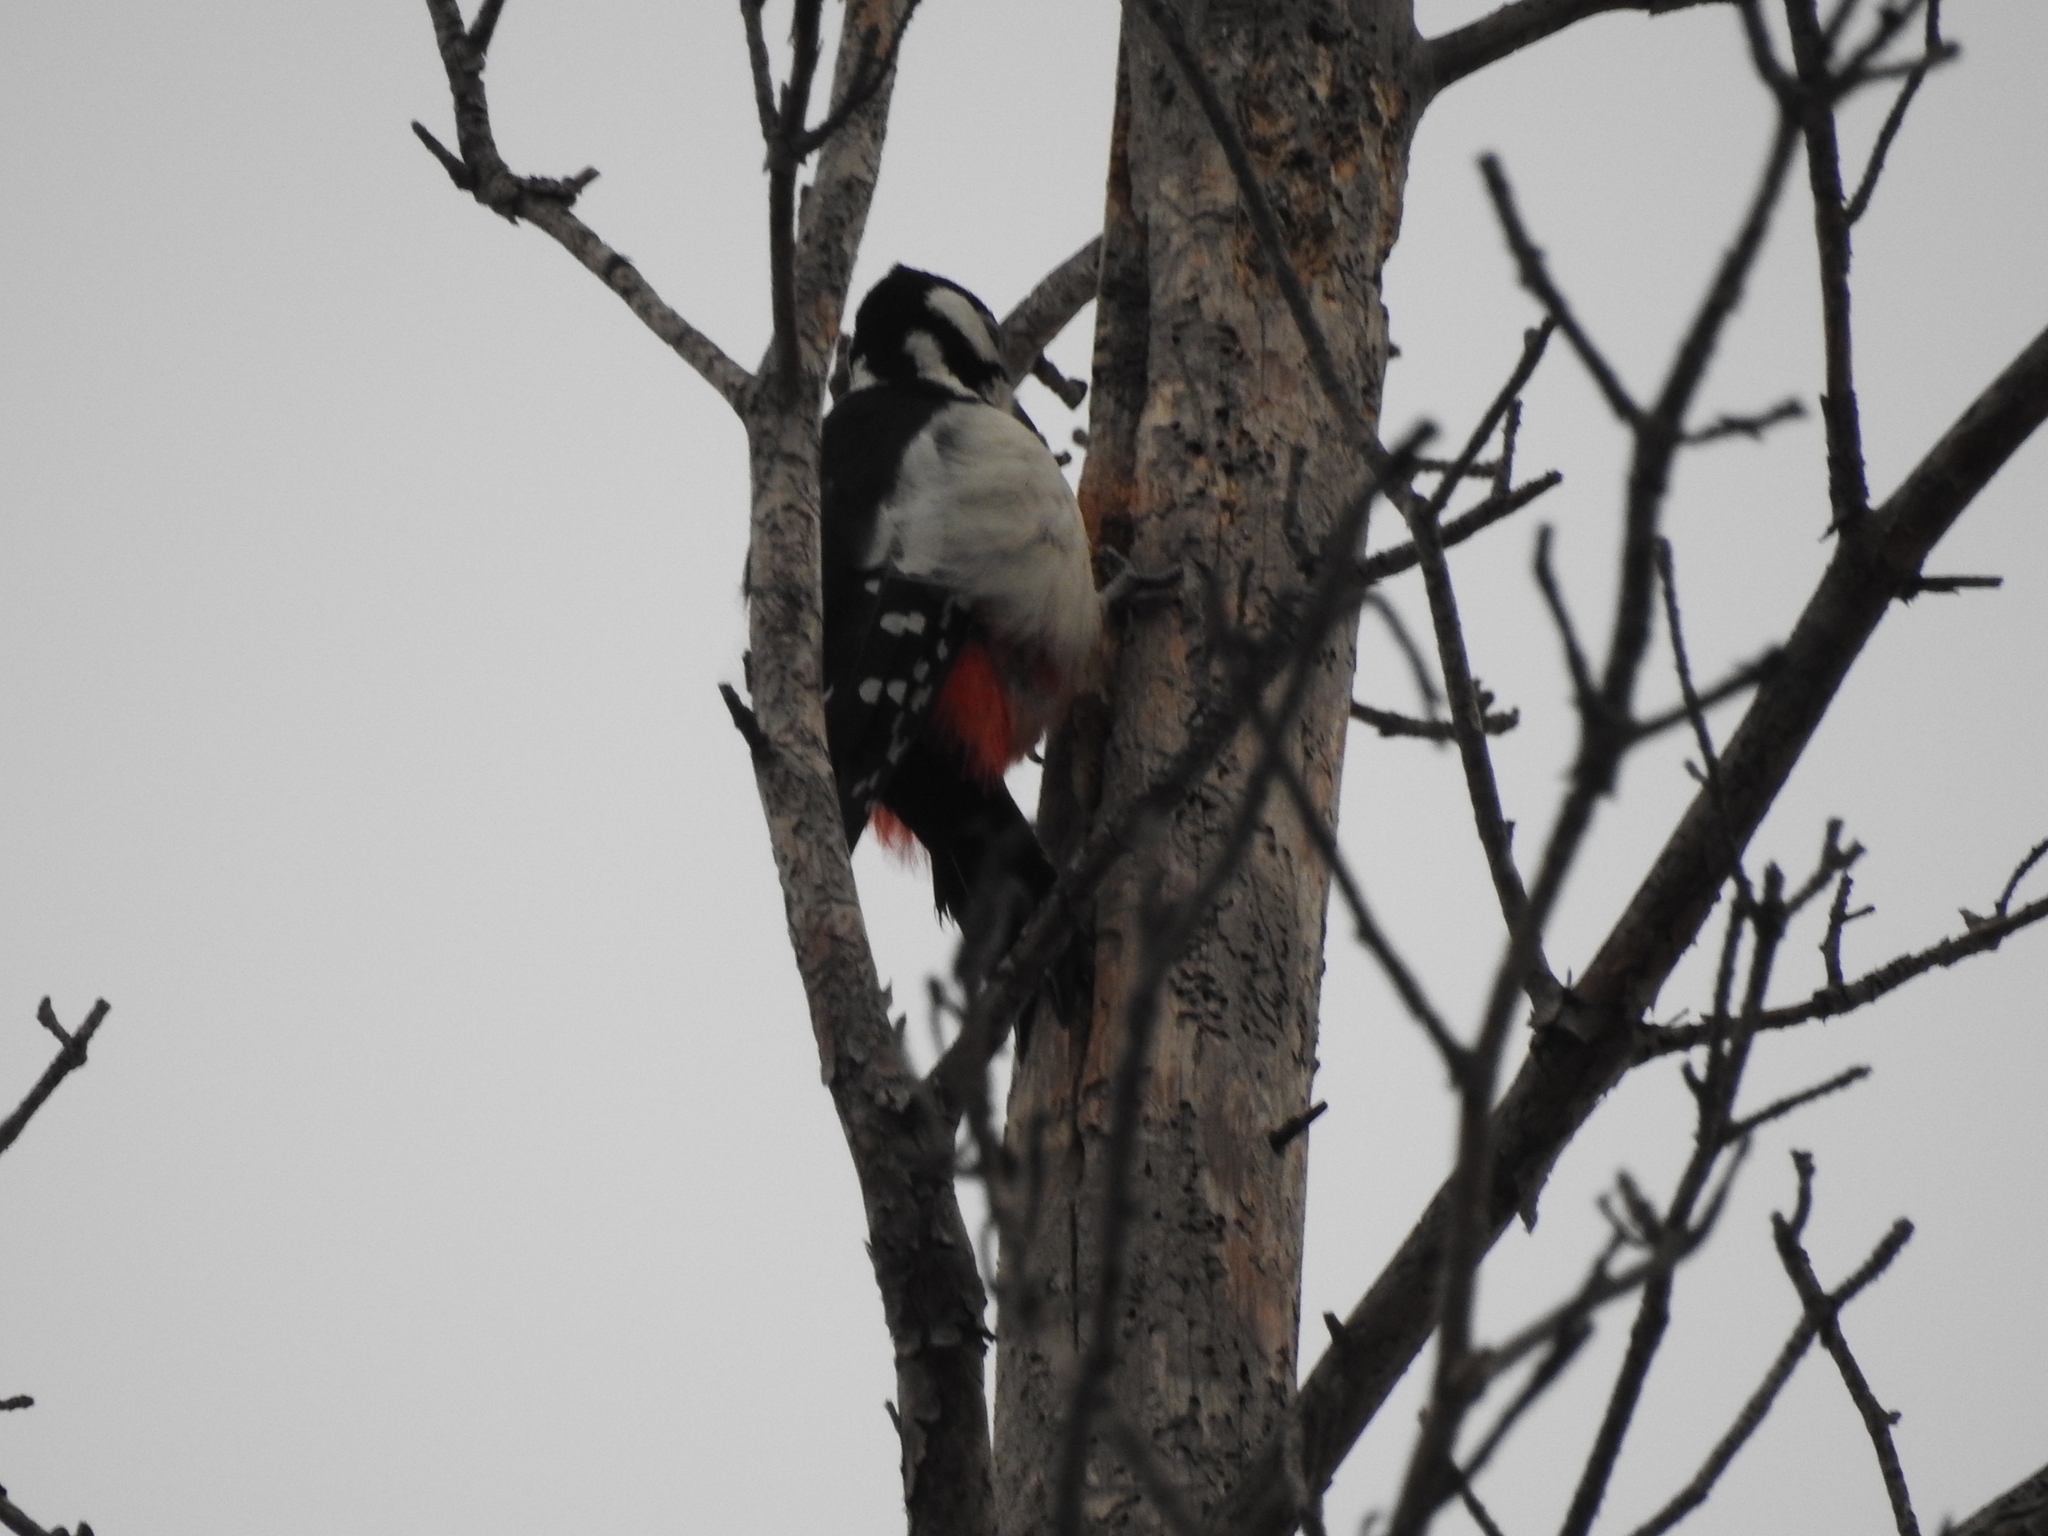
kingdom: Animalia
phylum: Chordata
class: Aves
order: Piciformes
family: Picidae
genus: Dendrocopos
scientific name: Dendrocopos major
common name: Great spotted woodpecker
